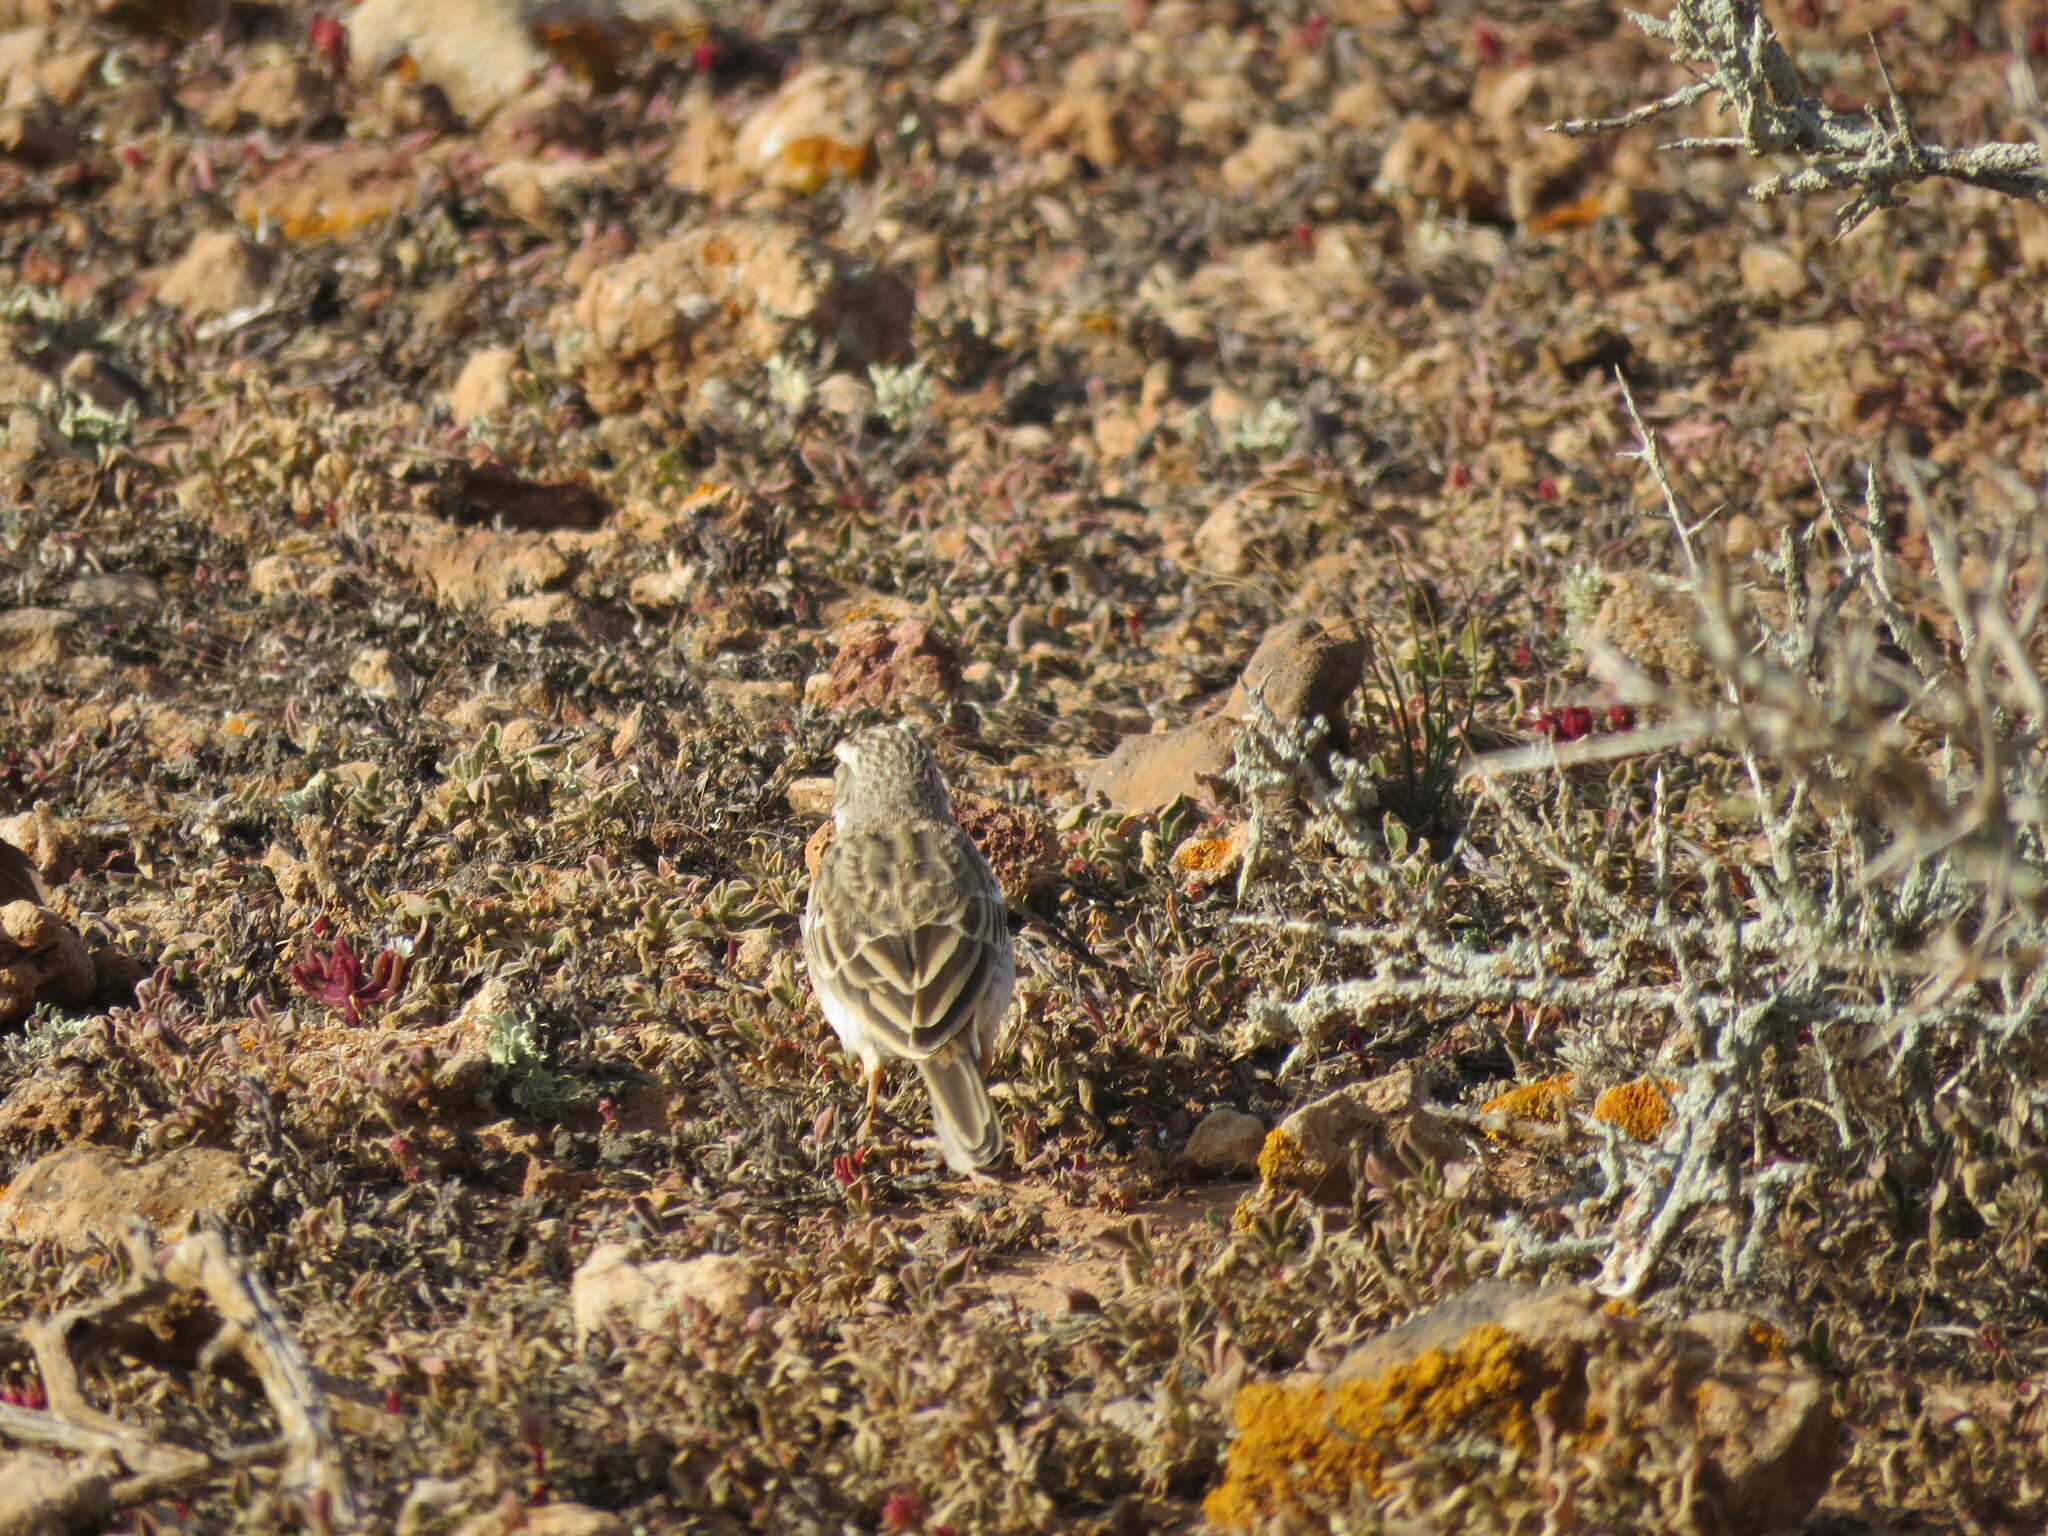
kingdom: Animalia
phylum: Chordata
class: Aves
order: Passeriformes
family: Motacillidae
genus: Anthus
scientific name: Anthus berthelotii
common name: Berthelot's pipit
